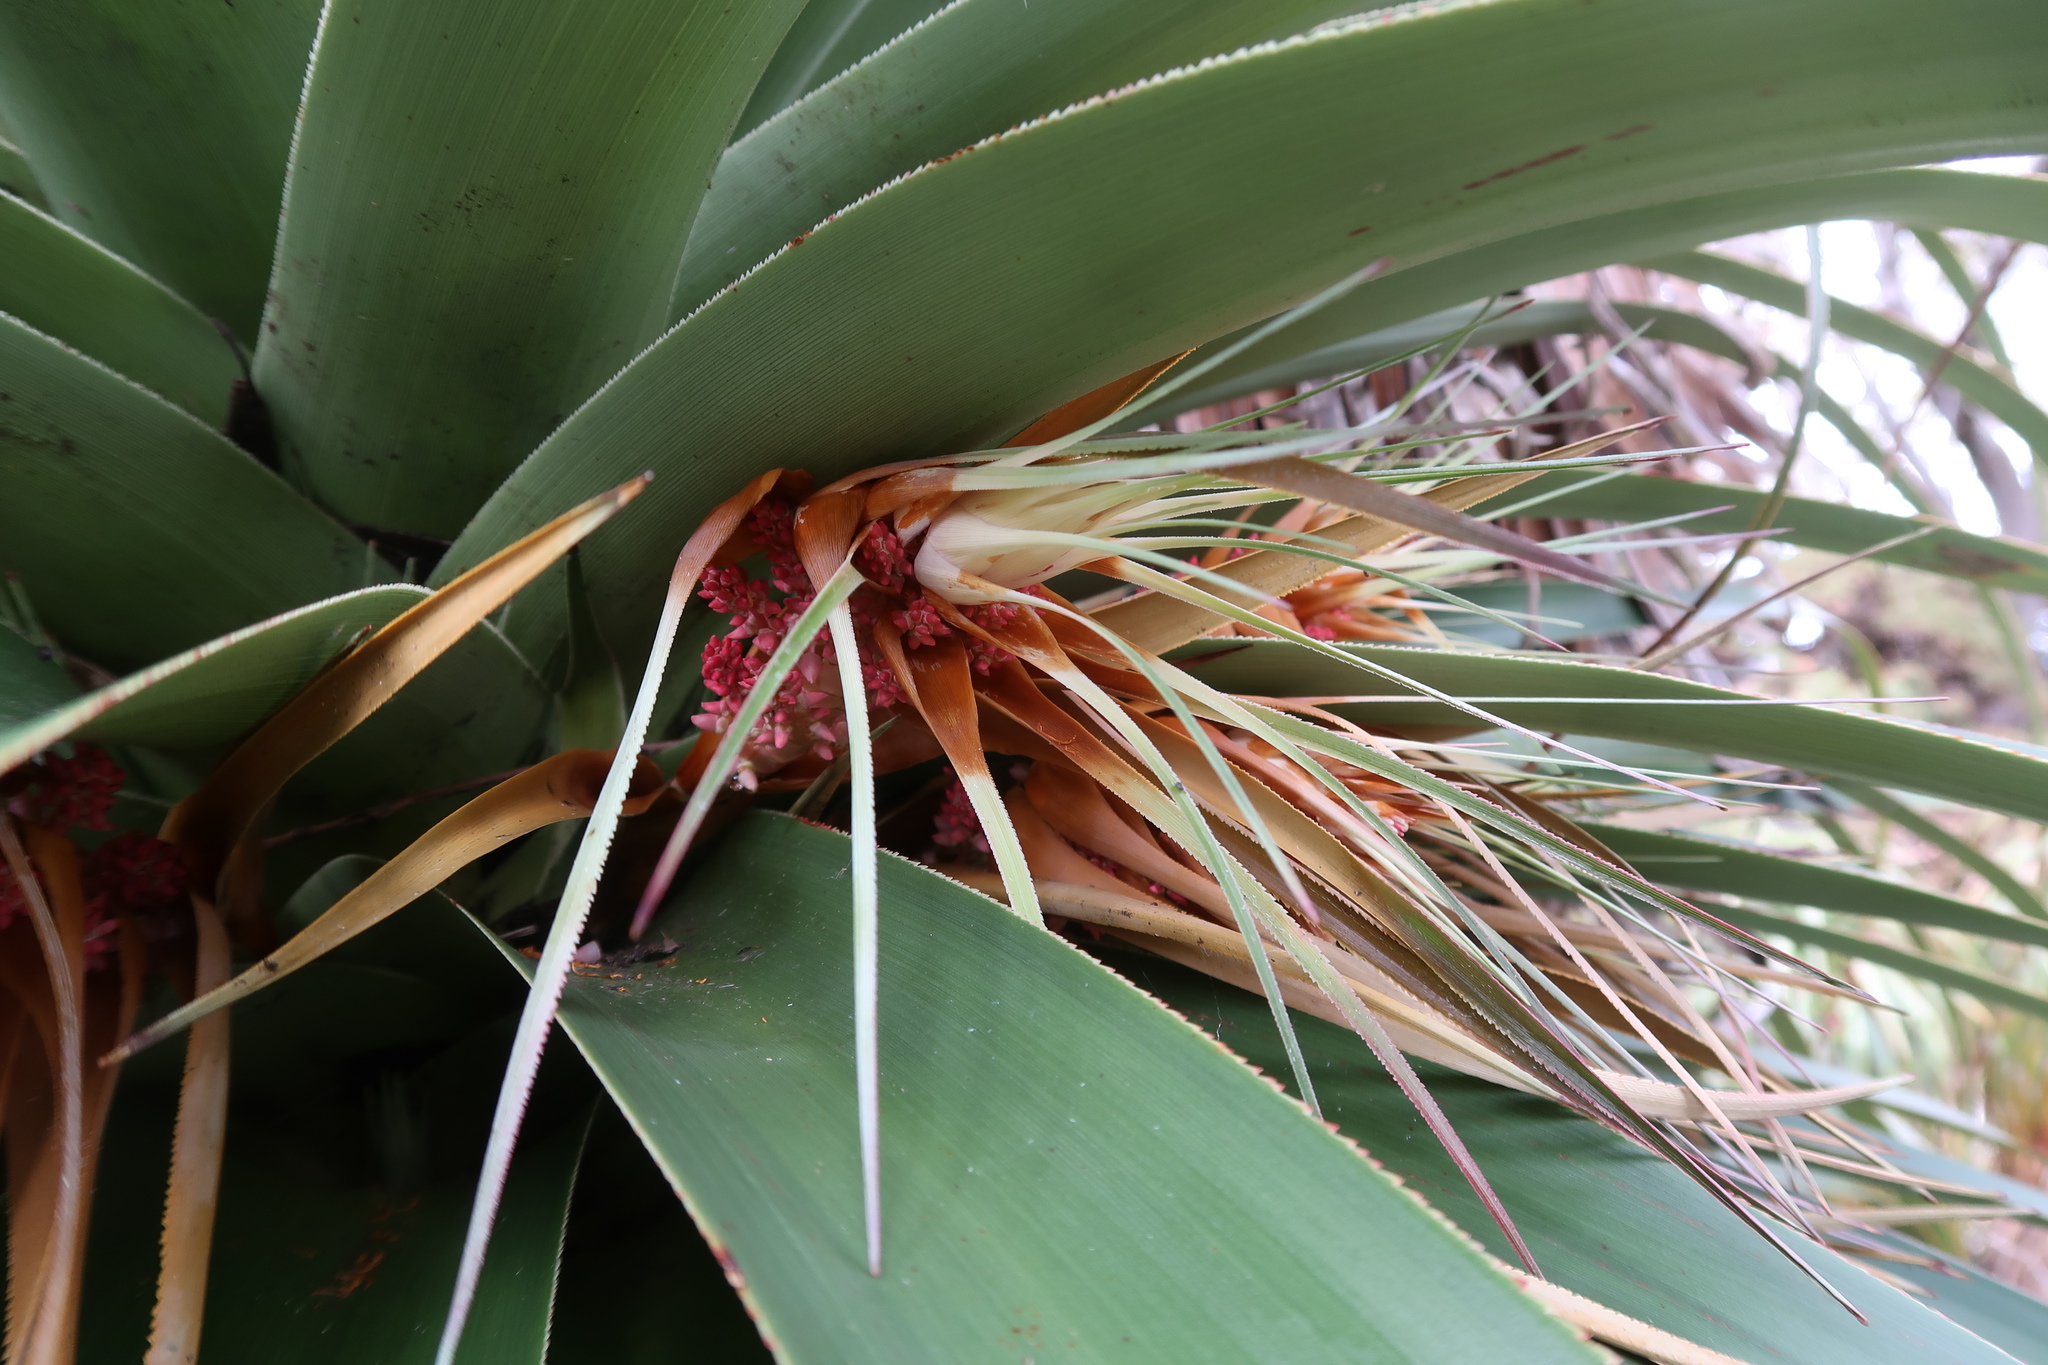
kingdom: Plantae
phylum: Tracheophyta
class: Magnoliopsida
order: Ericales
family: Ericaceae
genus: Dracophyllum
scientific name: Dracophyllum pandanifolium
